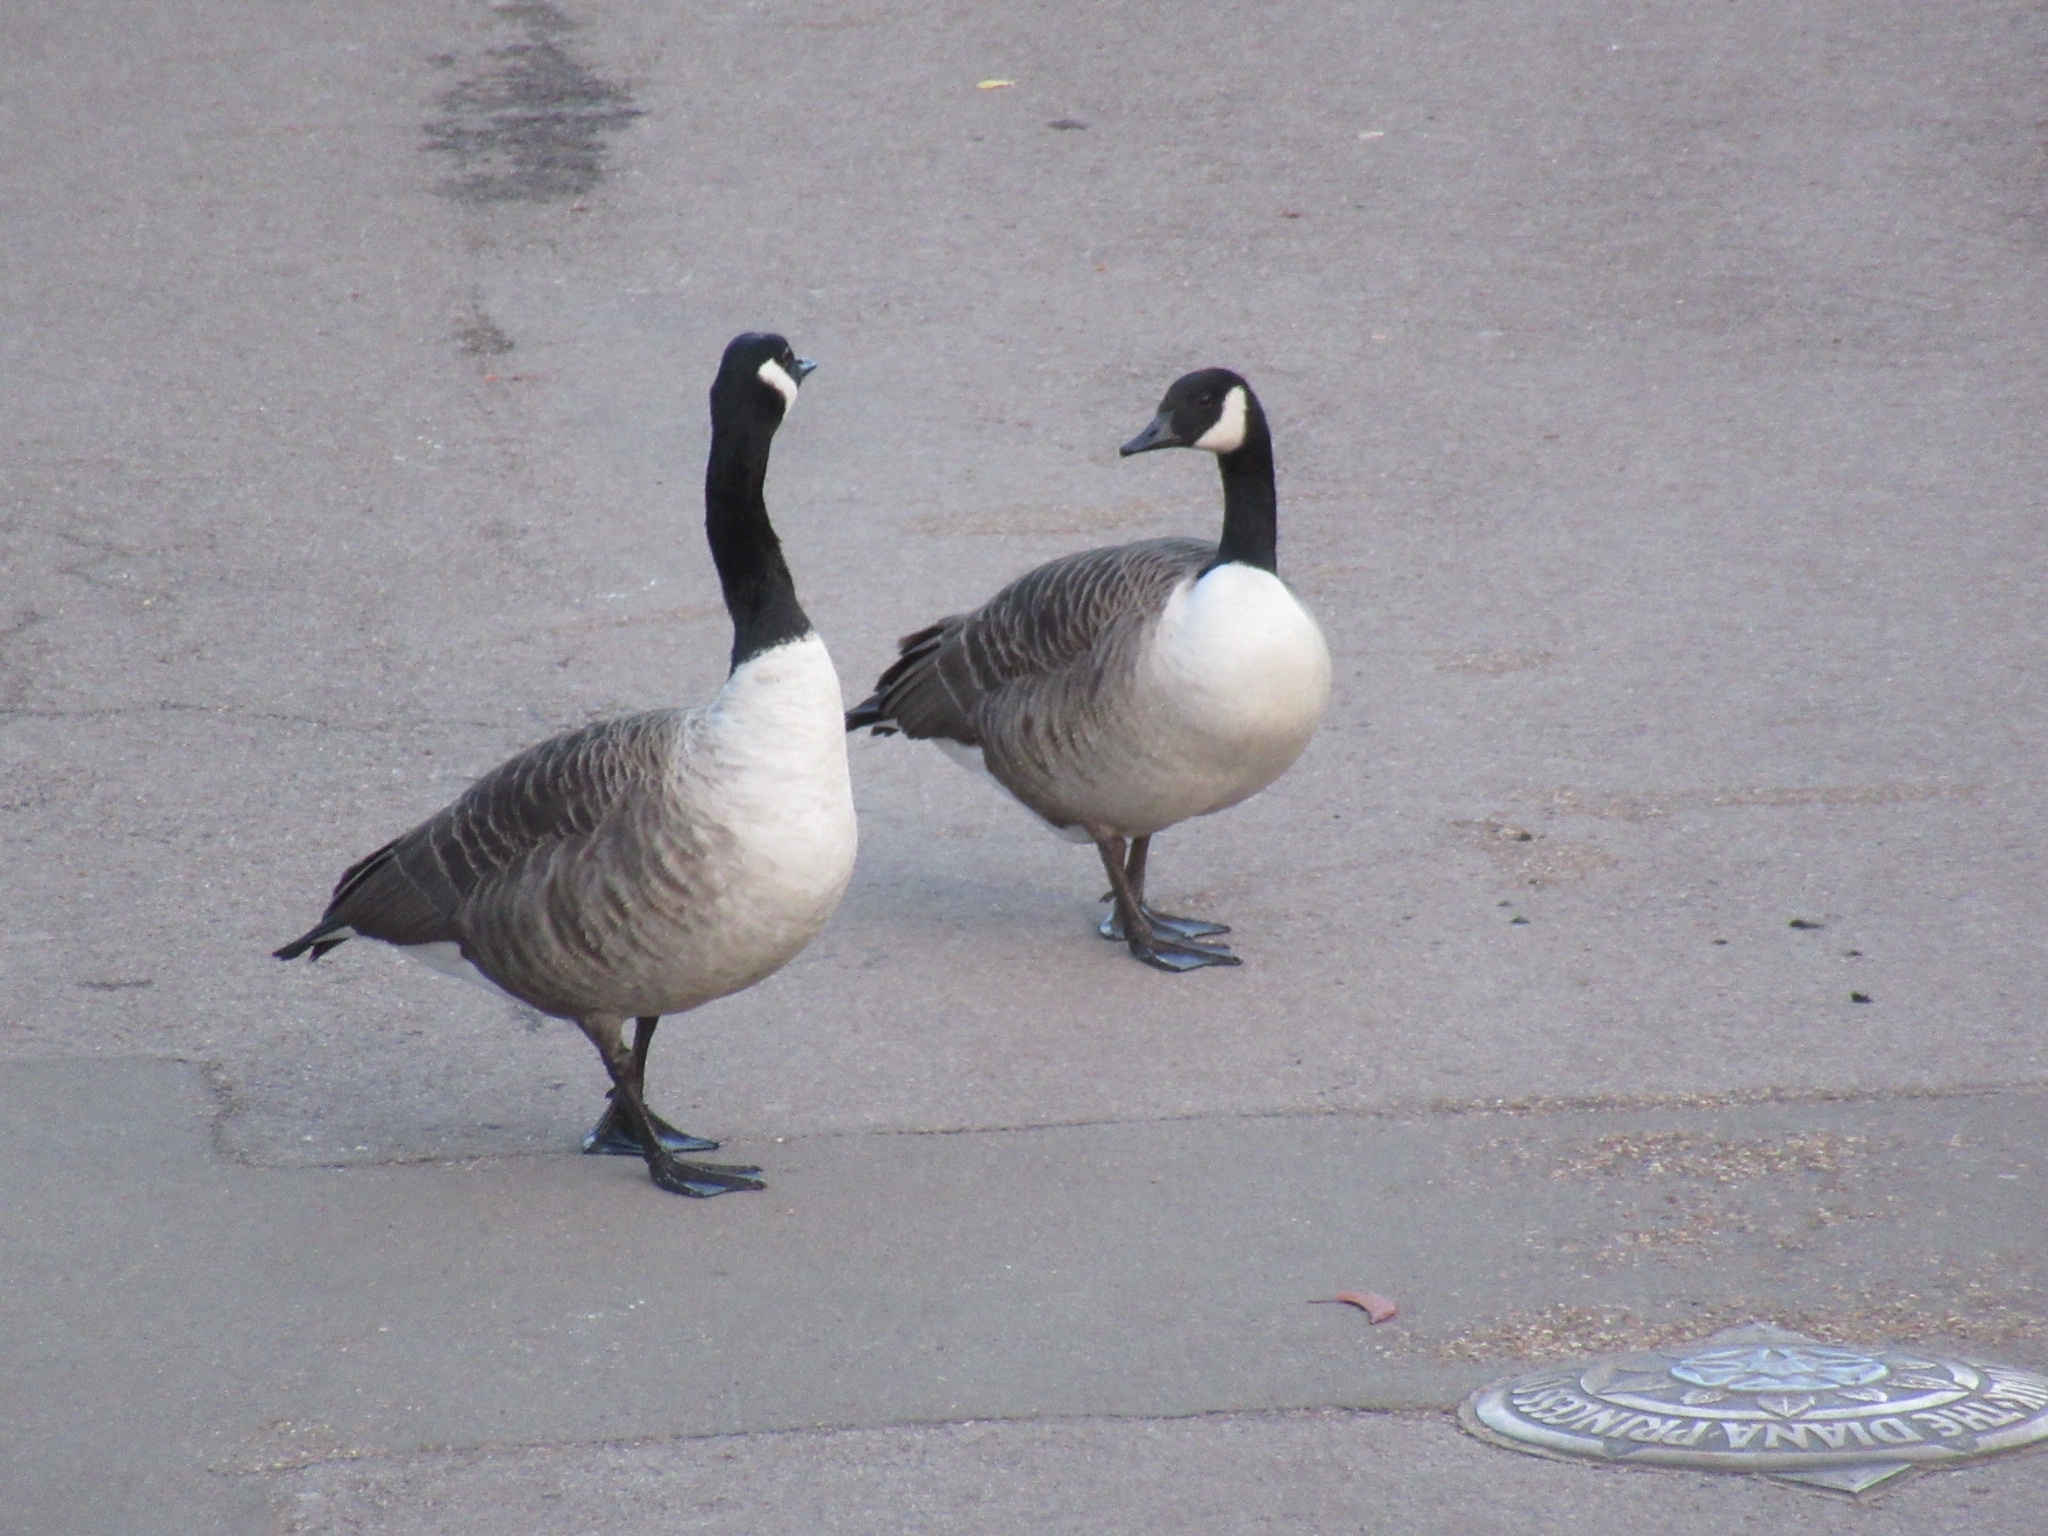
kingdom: Animalia
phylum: Chordata
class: Aves
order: Anseriformes
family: Anatidae
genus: Branta
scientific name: Branta canadensis
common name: Canada goose
